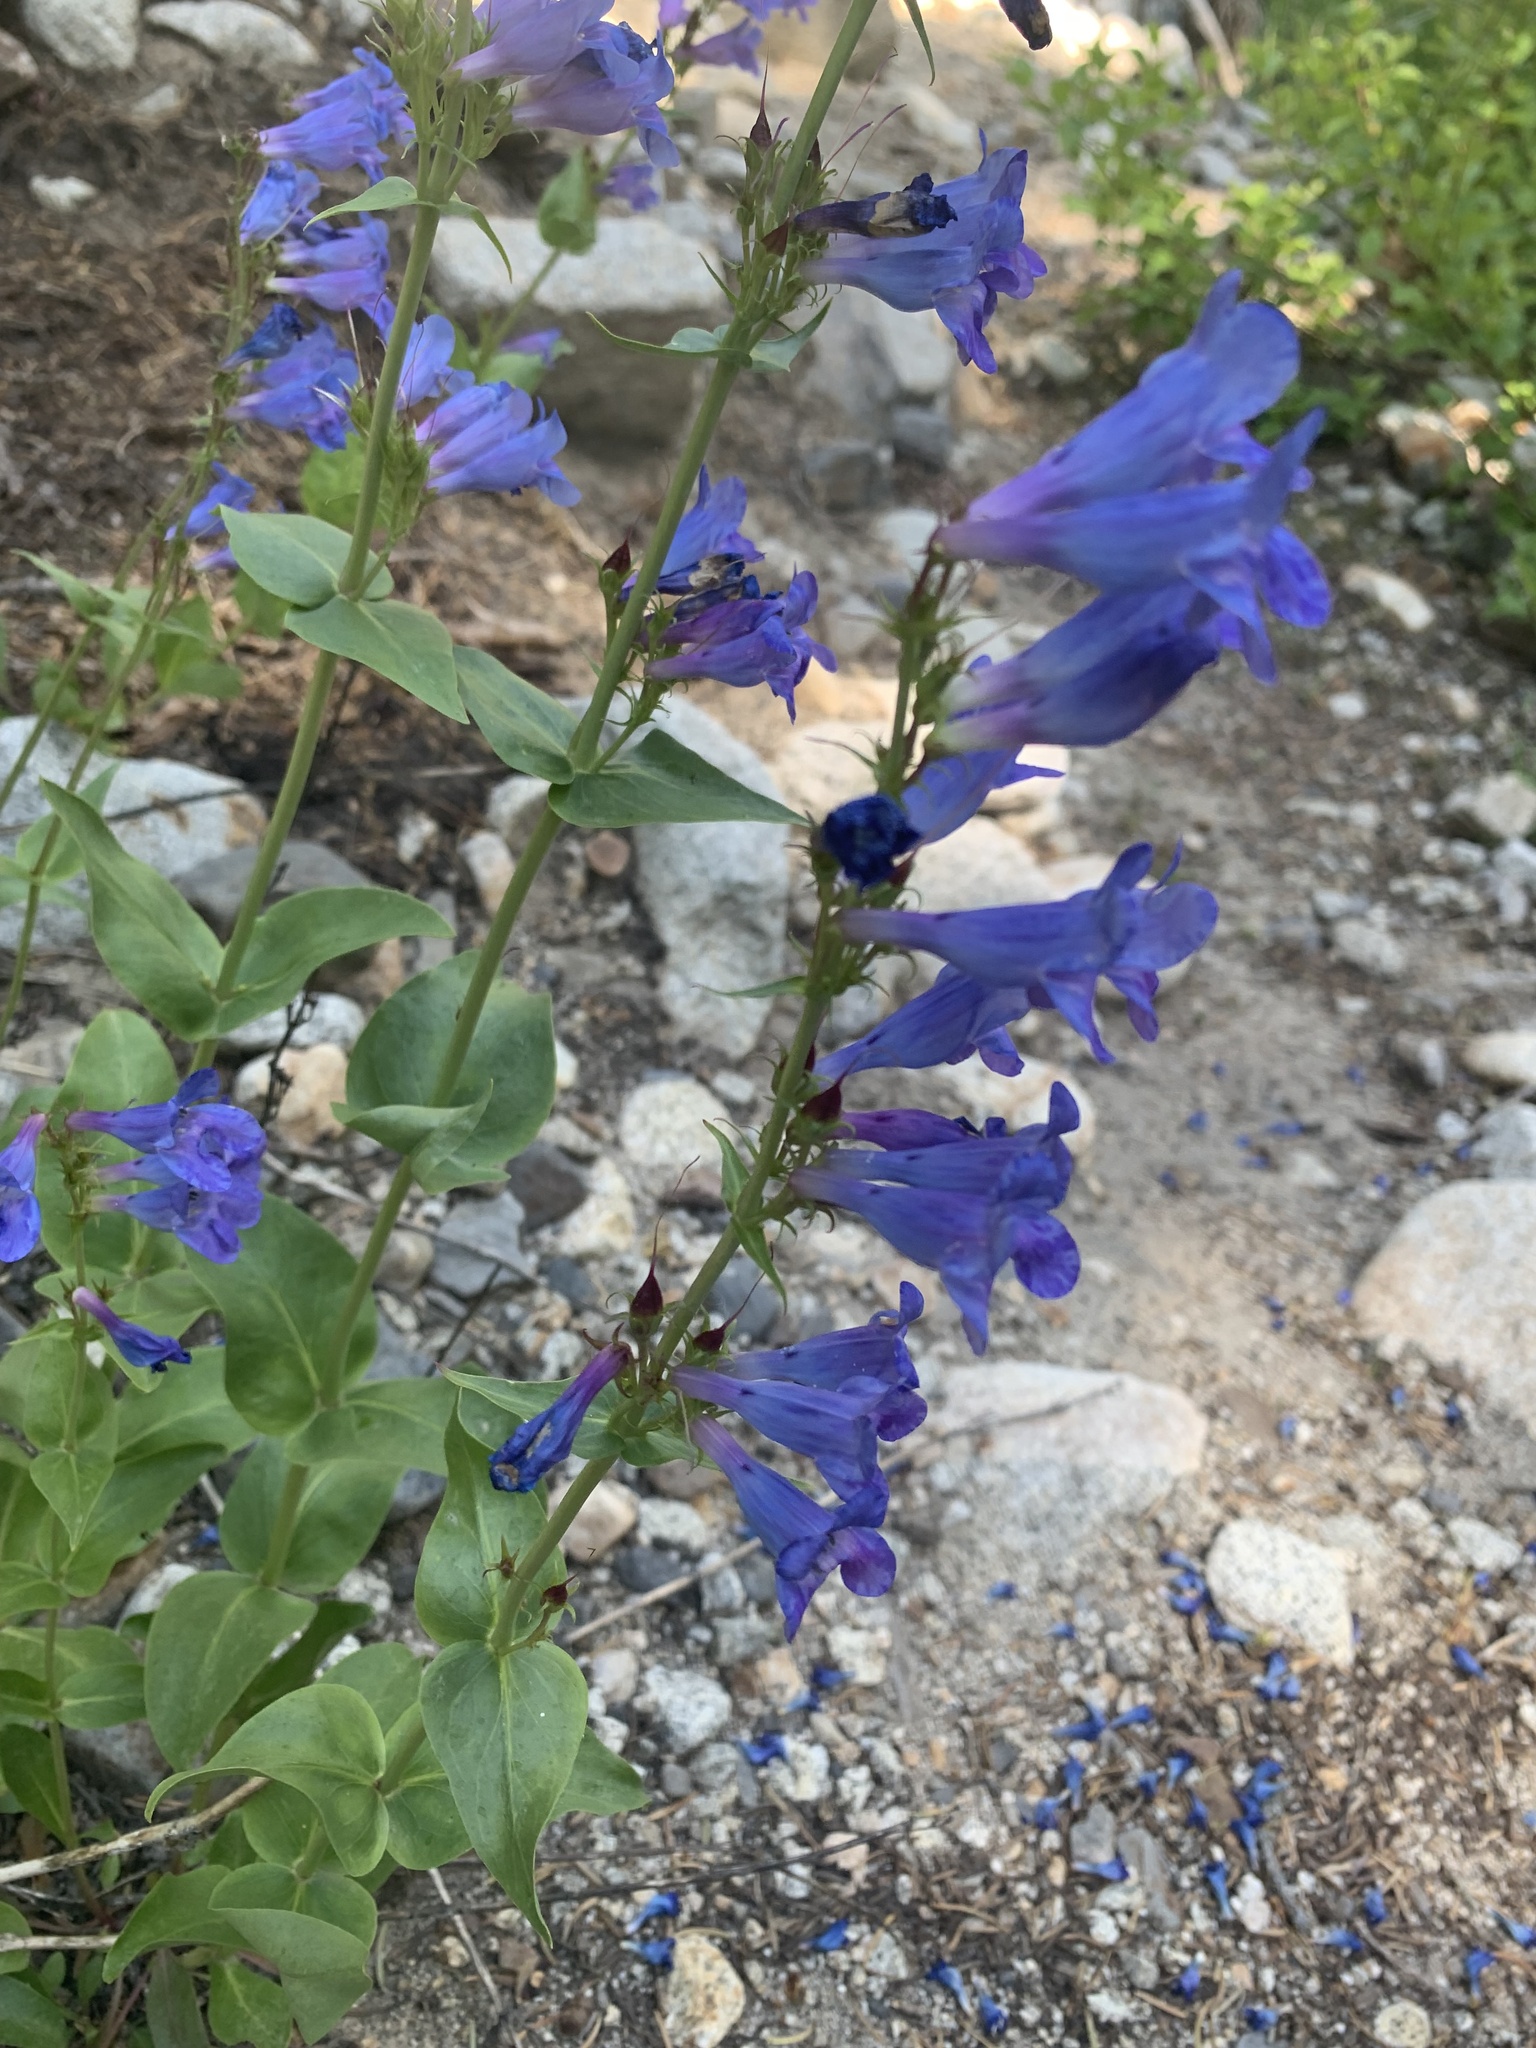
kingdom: Plantae
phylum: Tracheophyta
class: Magnoliopsida
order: Lamiales
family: Plantaginaceae
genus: Penstemon
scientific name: Penstemon cyananthus
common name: Wasatch penstemon
